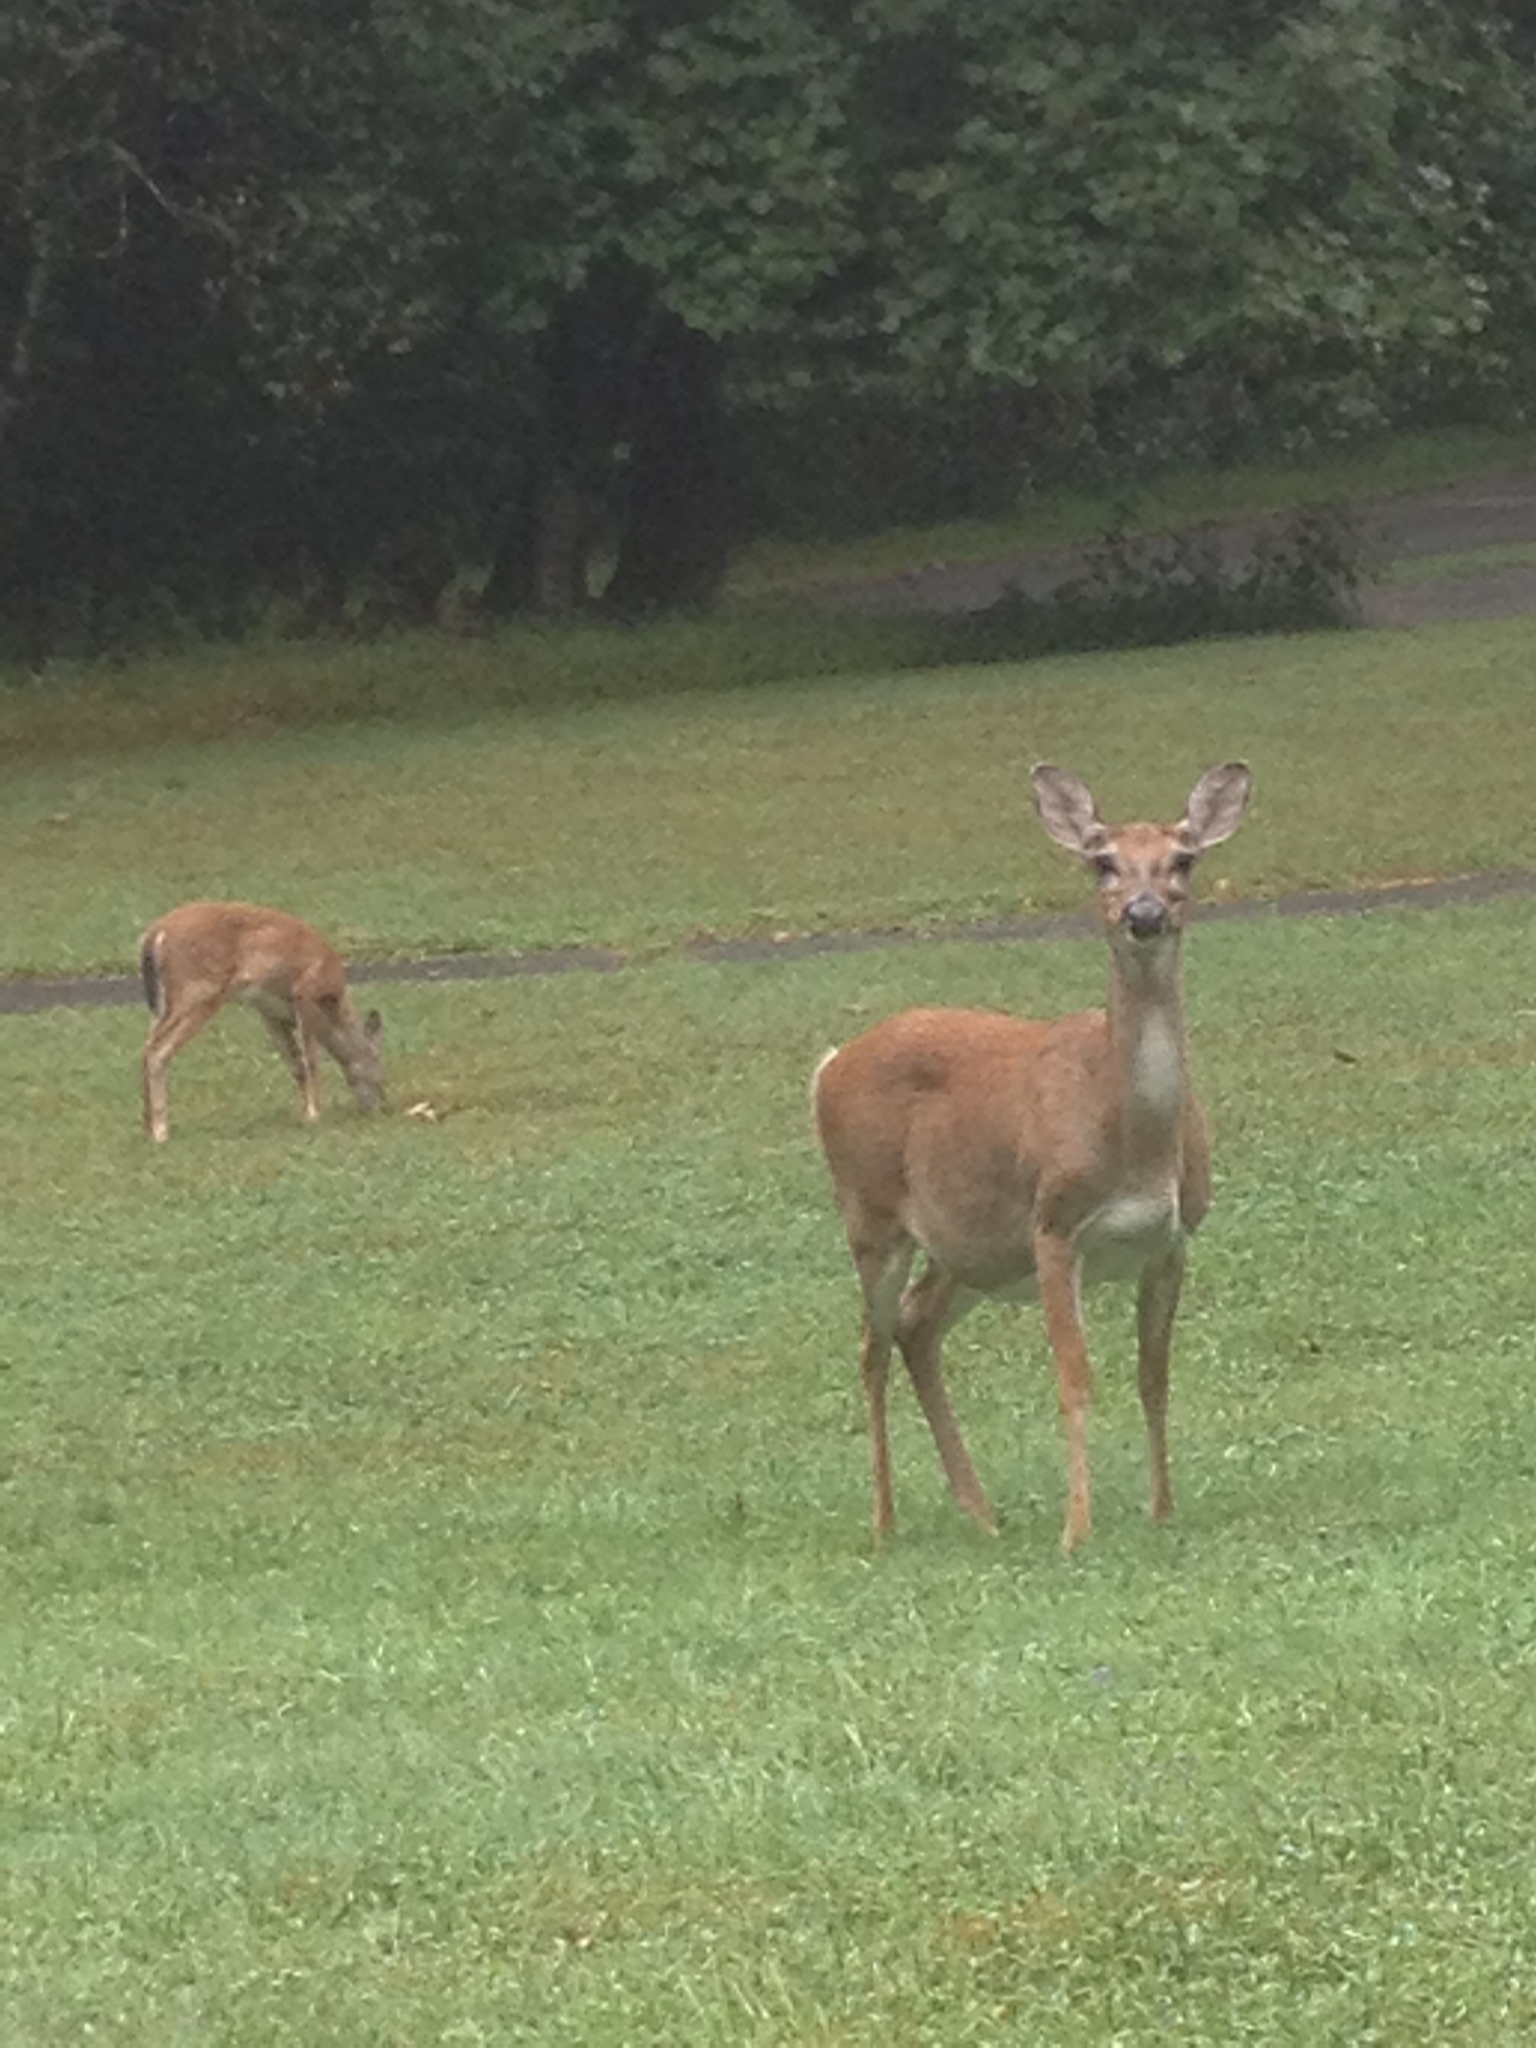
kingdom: Animalia
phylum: Chordata
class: Mammalia
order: Artiodactyla
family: Cervidae
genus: Odocoileus
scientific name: Odocoileus virginianus
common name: White-tailed deer
